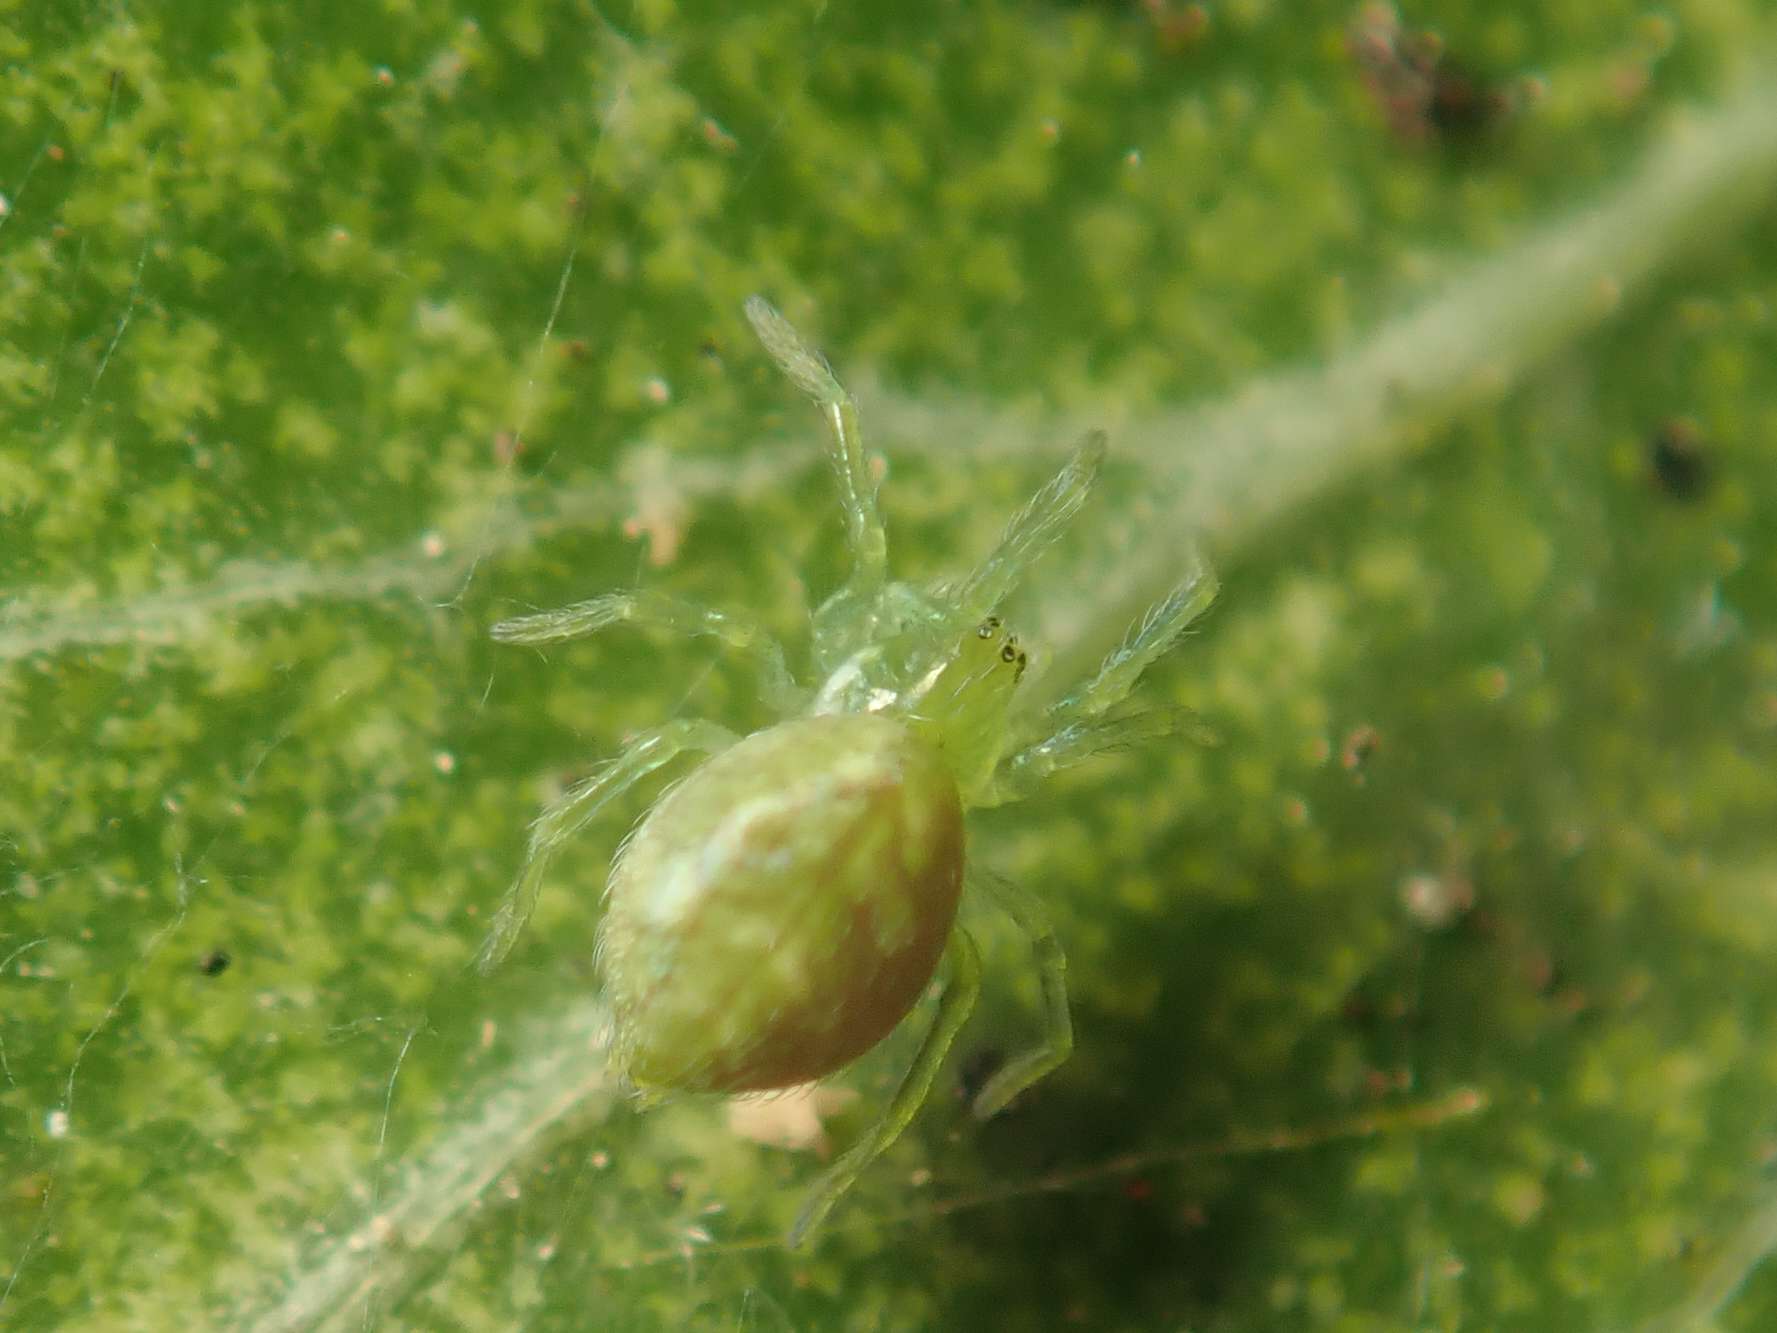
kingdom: Animalia
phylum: Arthropoda
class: Arachnida
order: Araneae
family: Dictynidae
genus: Nigma
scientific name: Nigma walckenaeri
